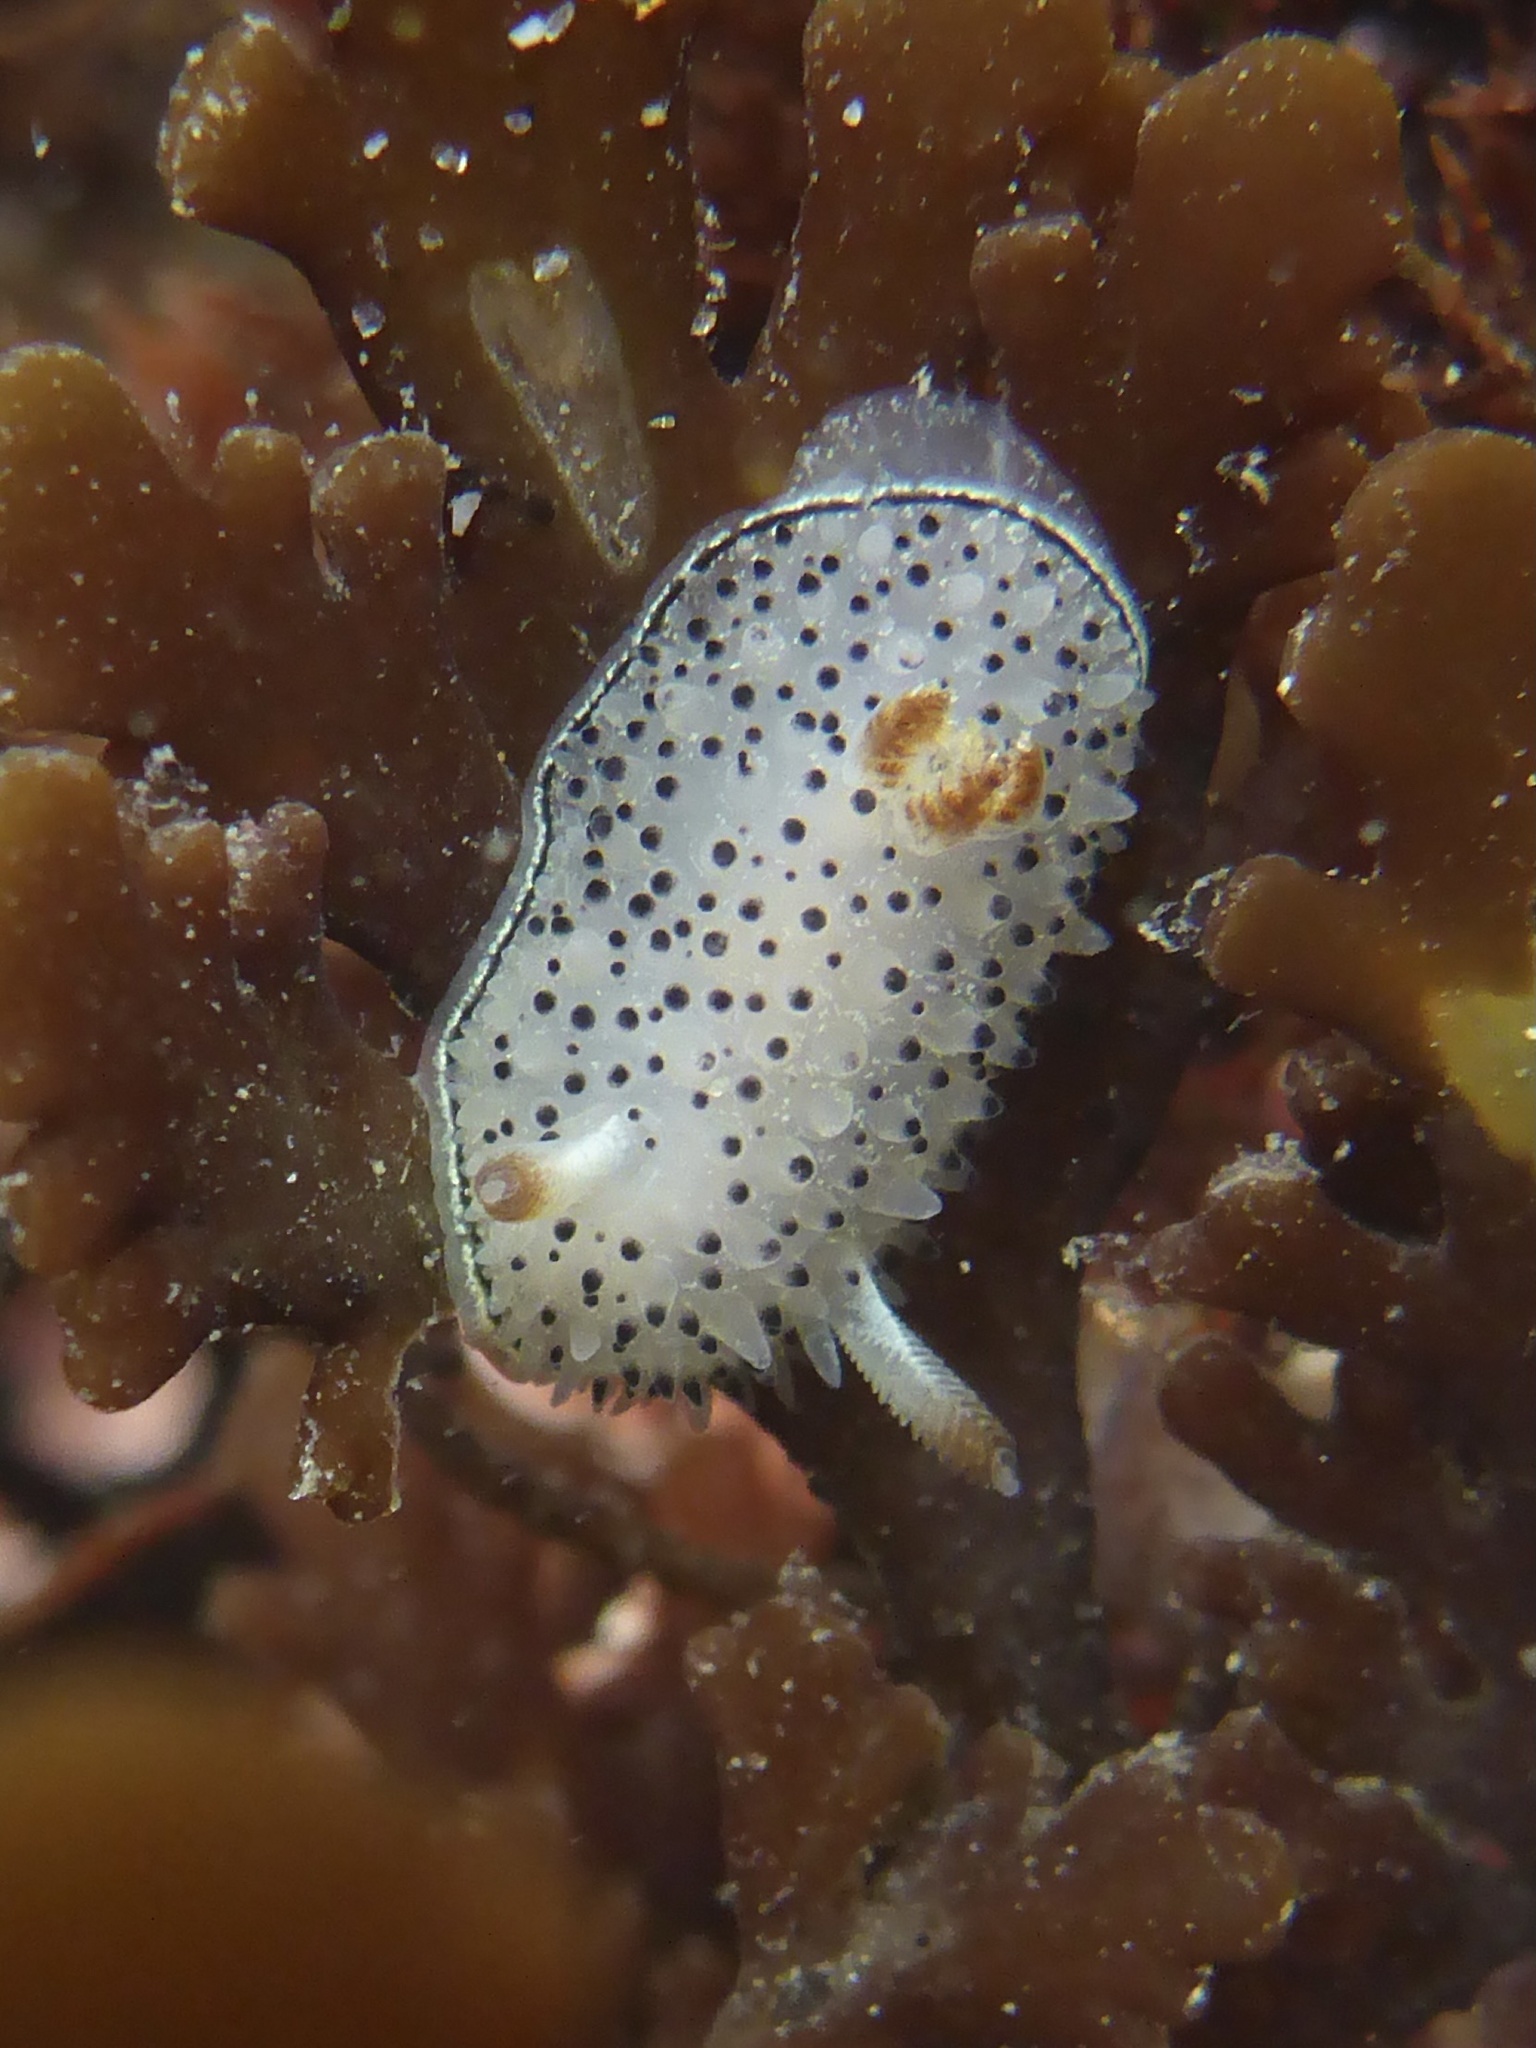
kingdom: Animalia
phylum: Mollusca
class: Gastropoda
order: Nudibranchia
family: Onchidorididae
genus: Acanthodoris
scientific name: Acanthodoris rhodoceras
